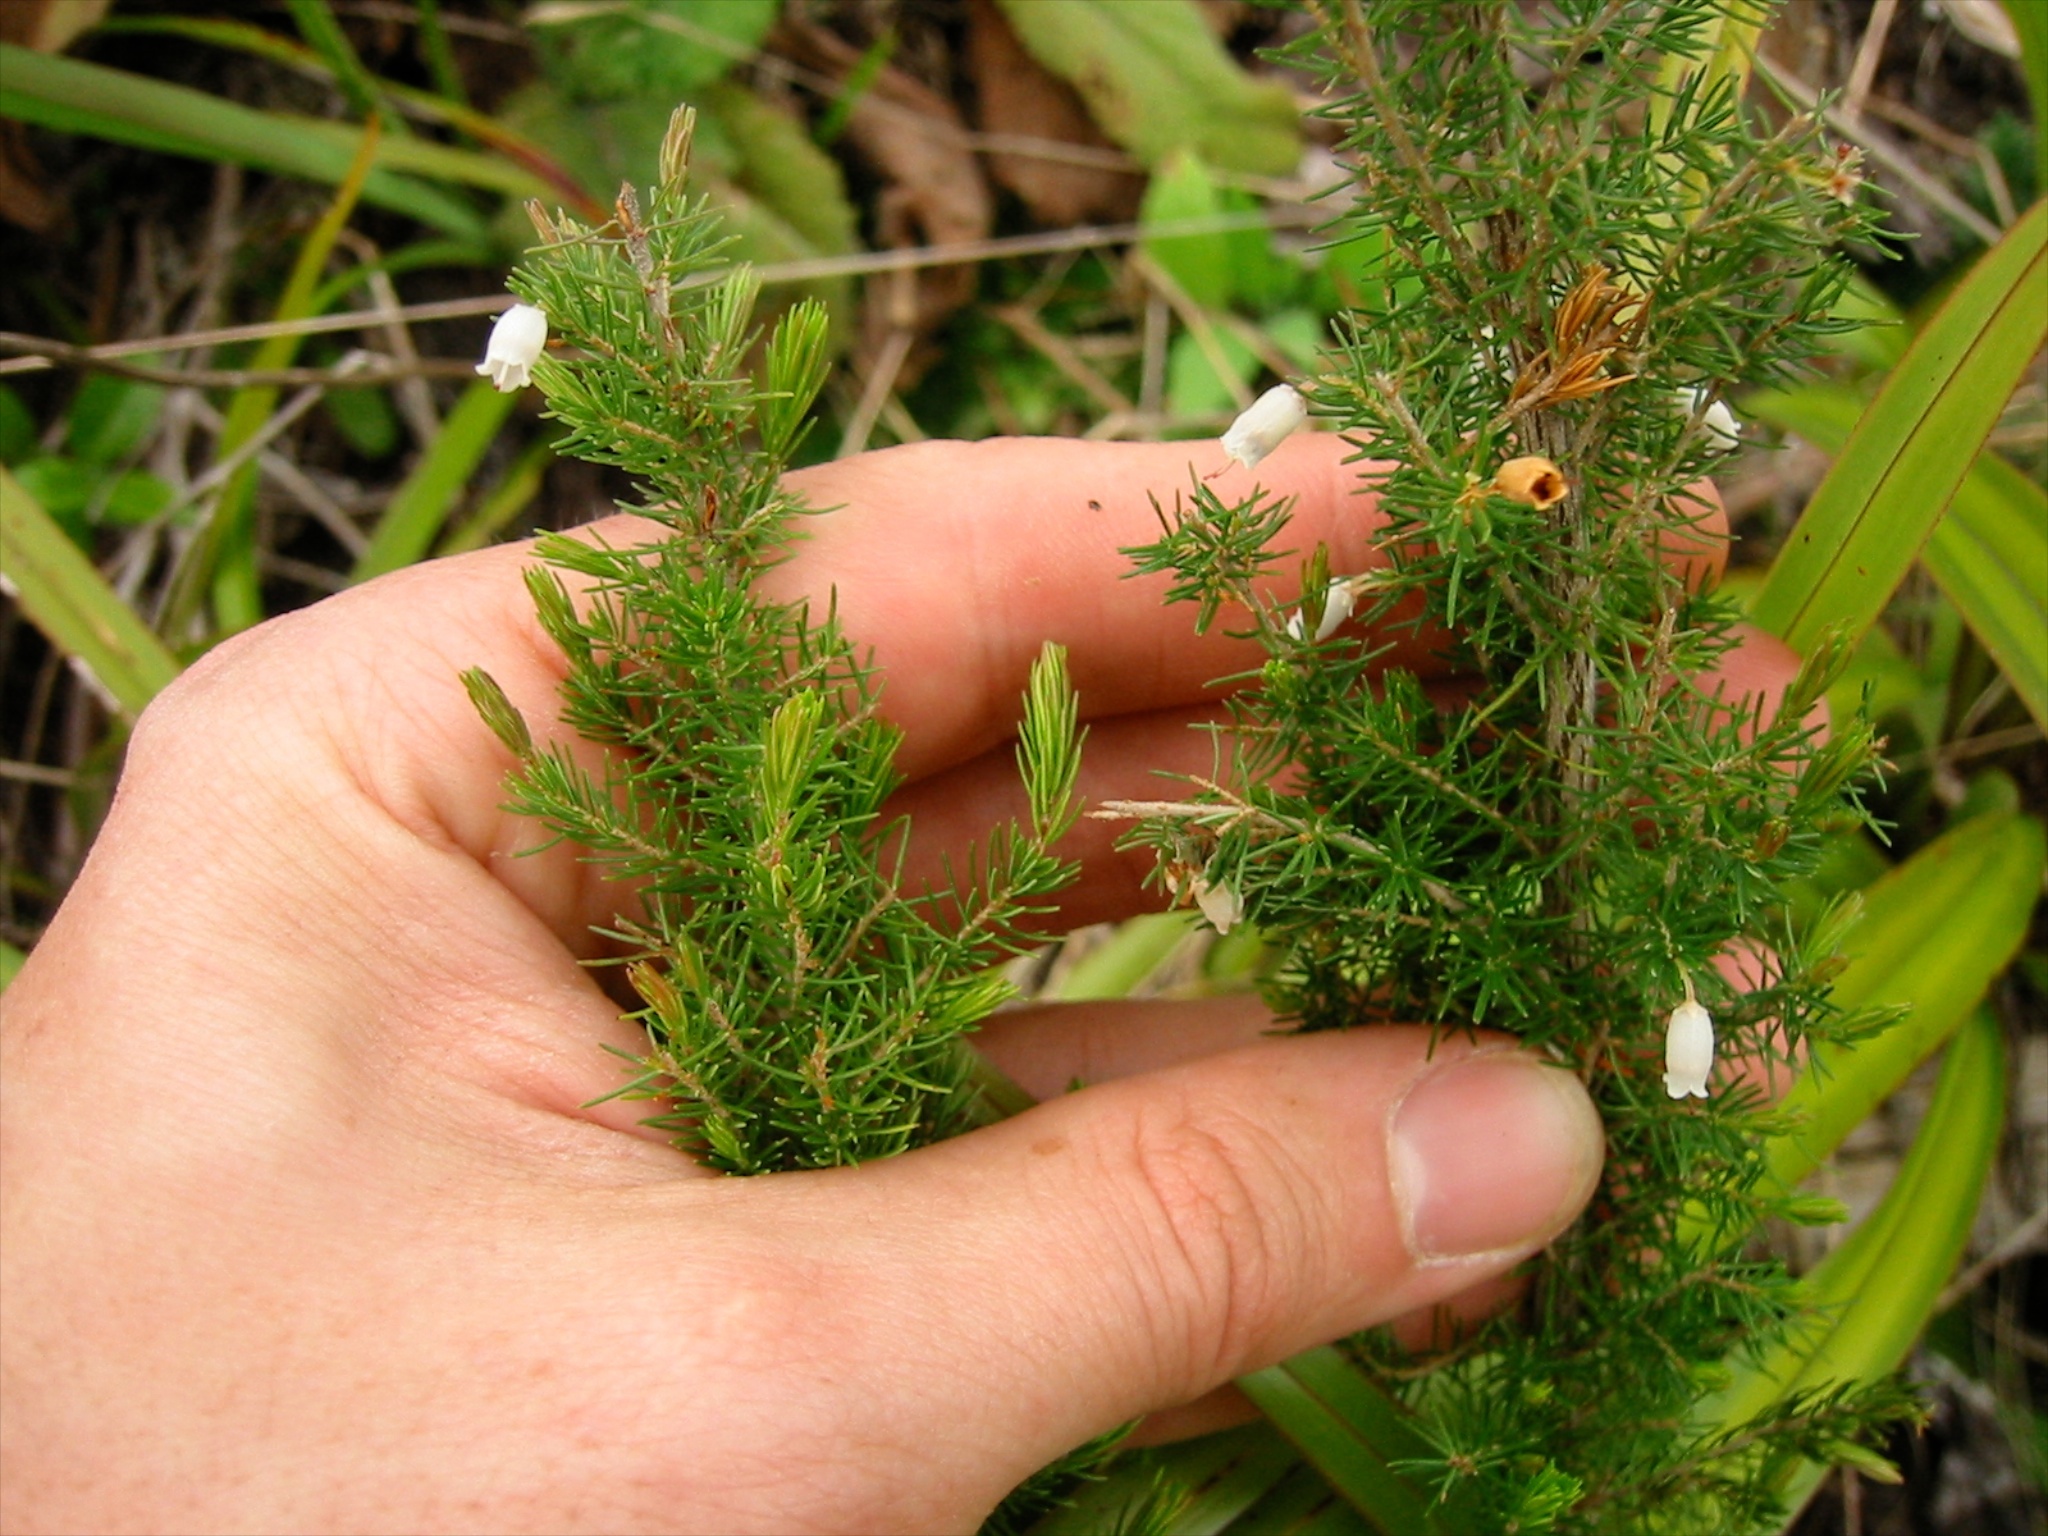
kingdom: Plantae
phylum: Tracheophyta
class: Magnoliopsida
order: Ericales
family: Ericaceae
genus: Erica
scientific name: Erica lusitanica
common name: Spanish heath
